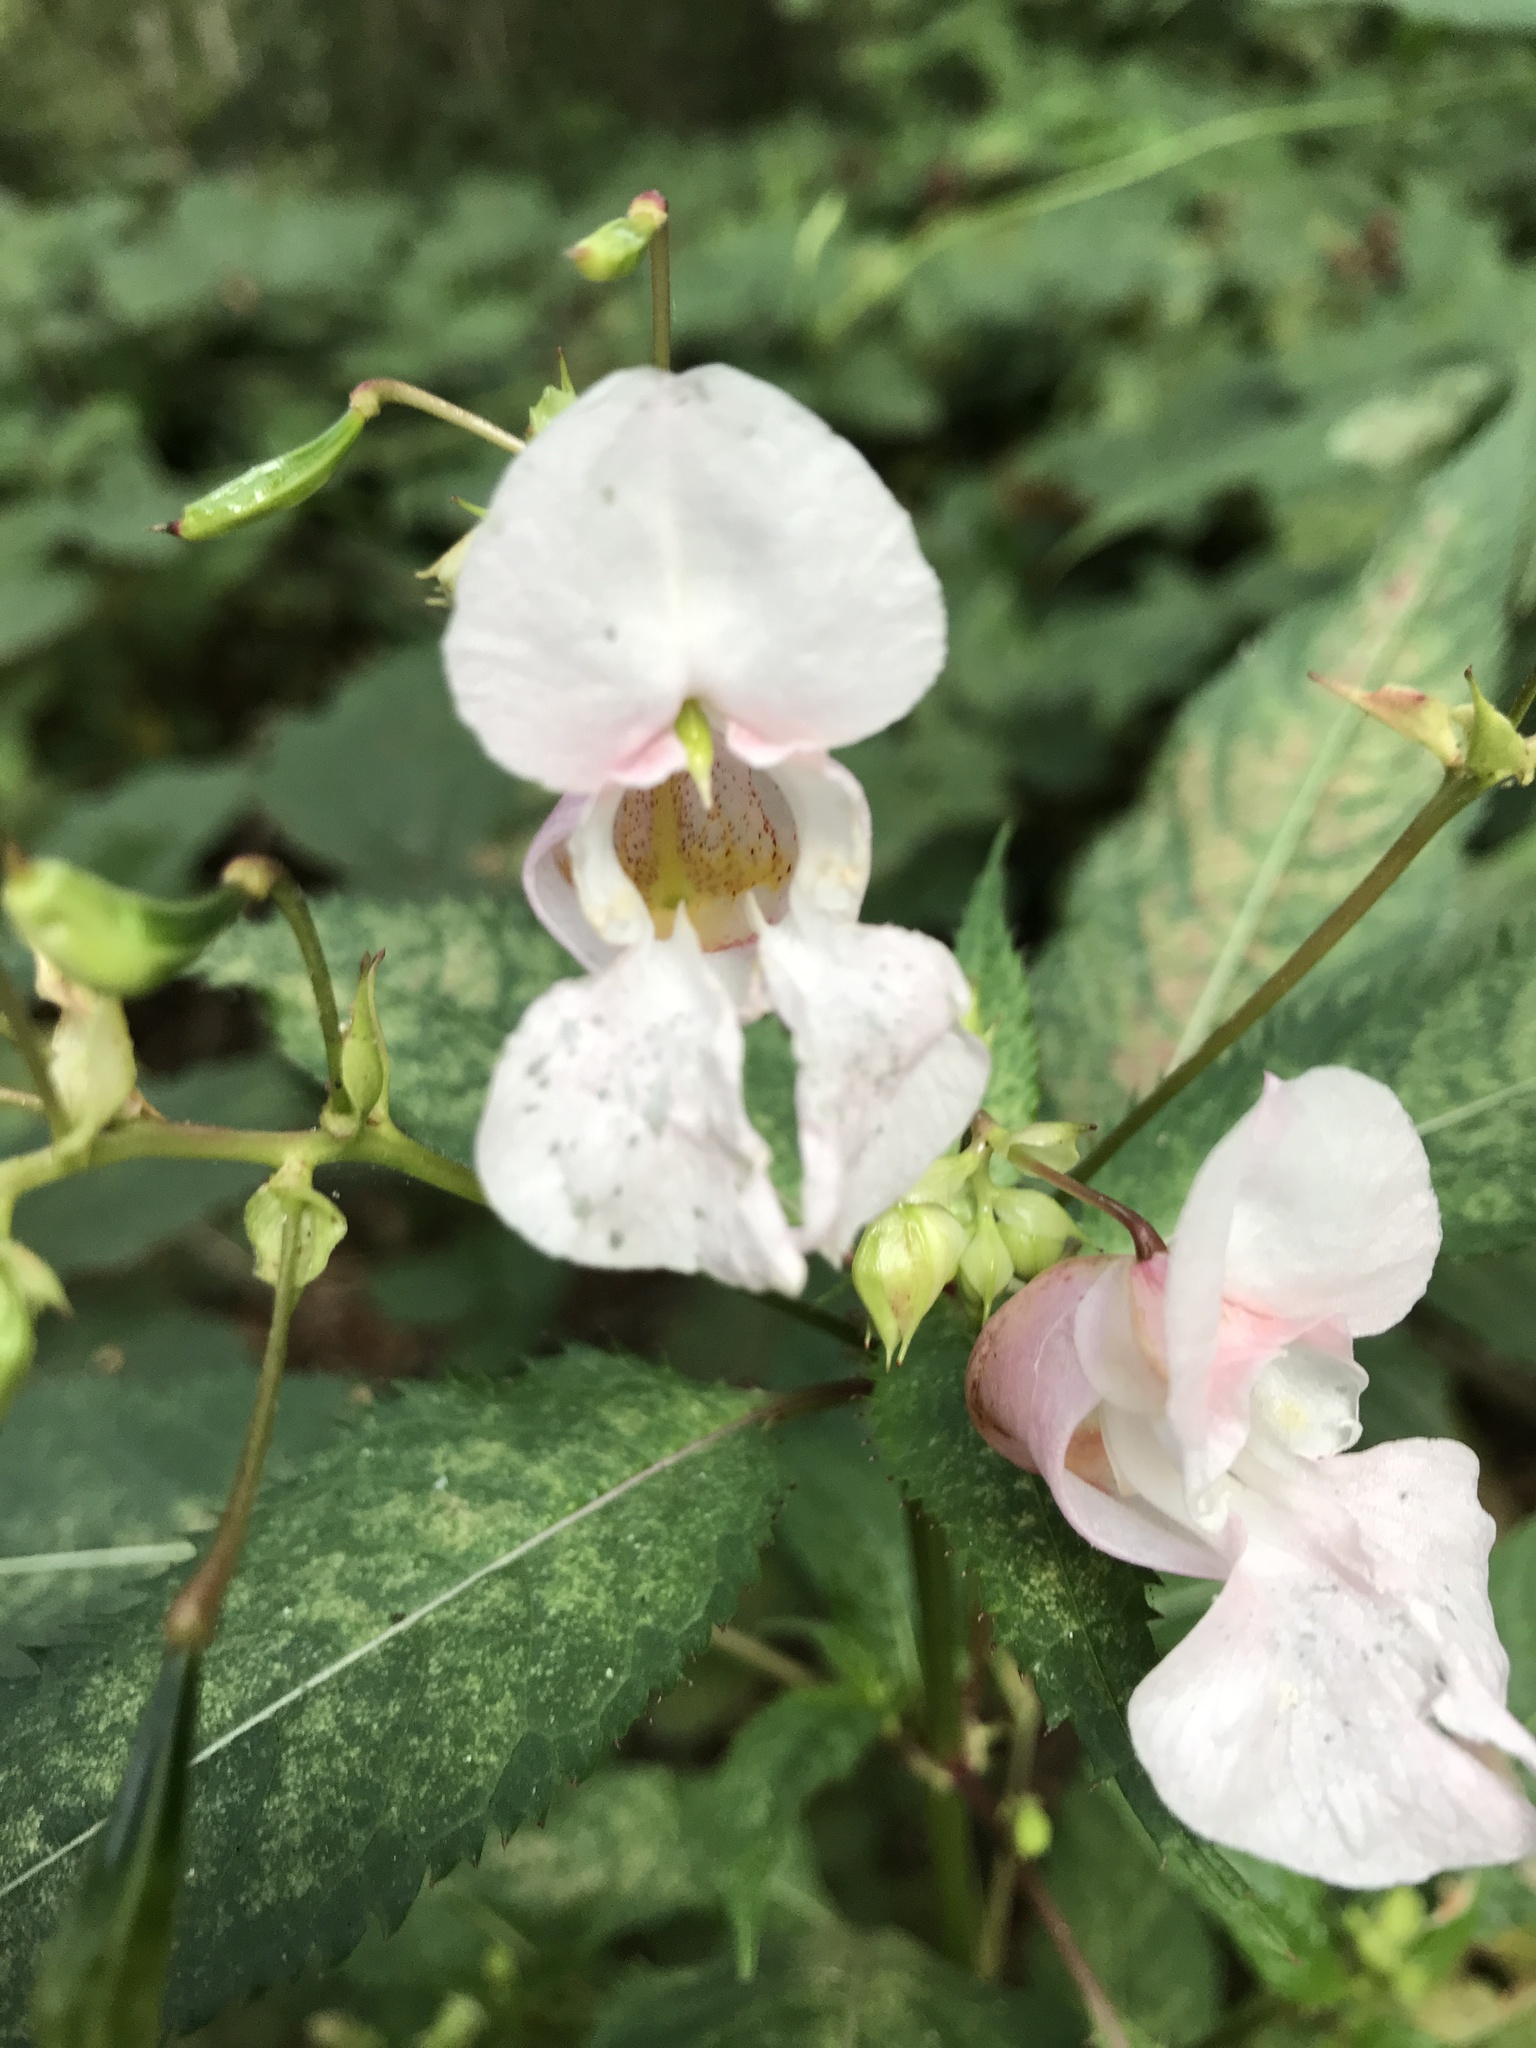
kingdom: Plantae
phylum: Tracheophyta
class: Magnoliopsida
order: Ericales
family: Balsaminaceae
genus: Impatiens
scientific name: Impatiens glandulifera
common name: Himalayan balsam
